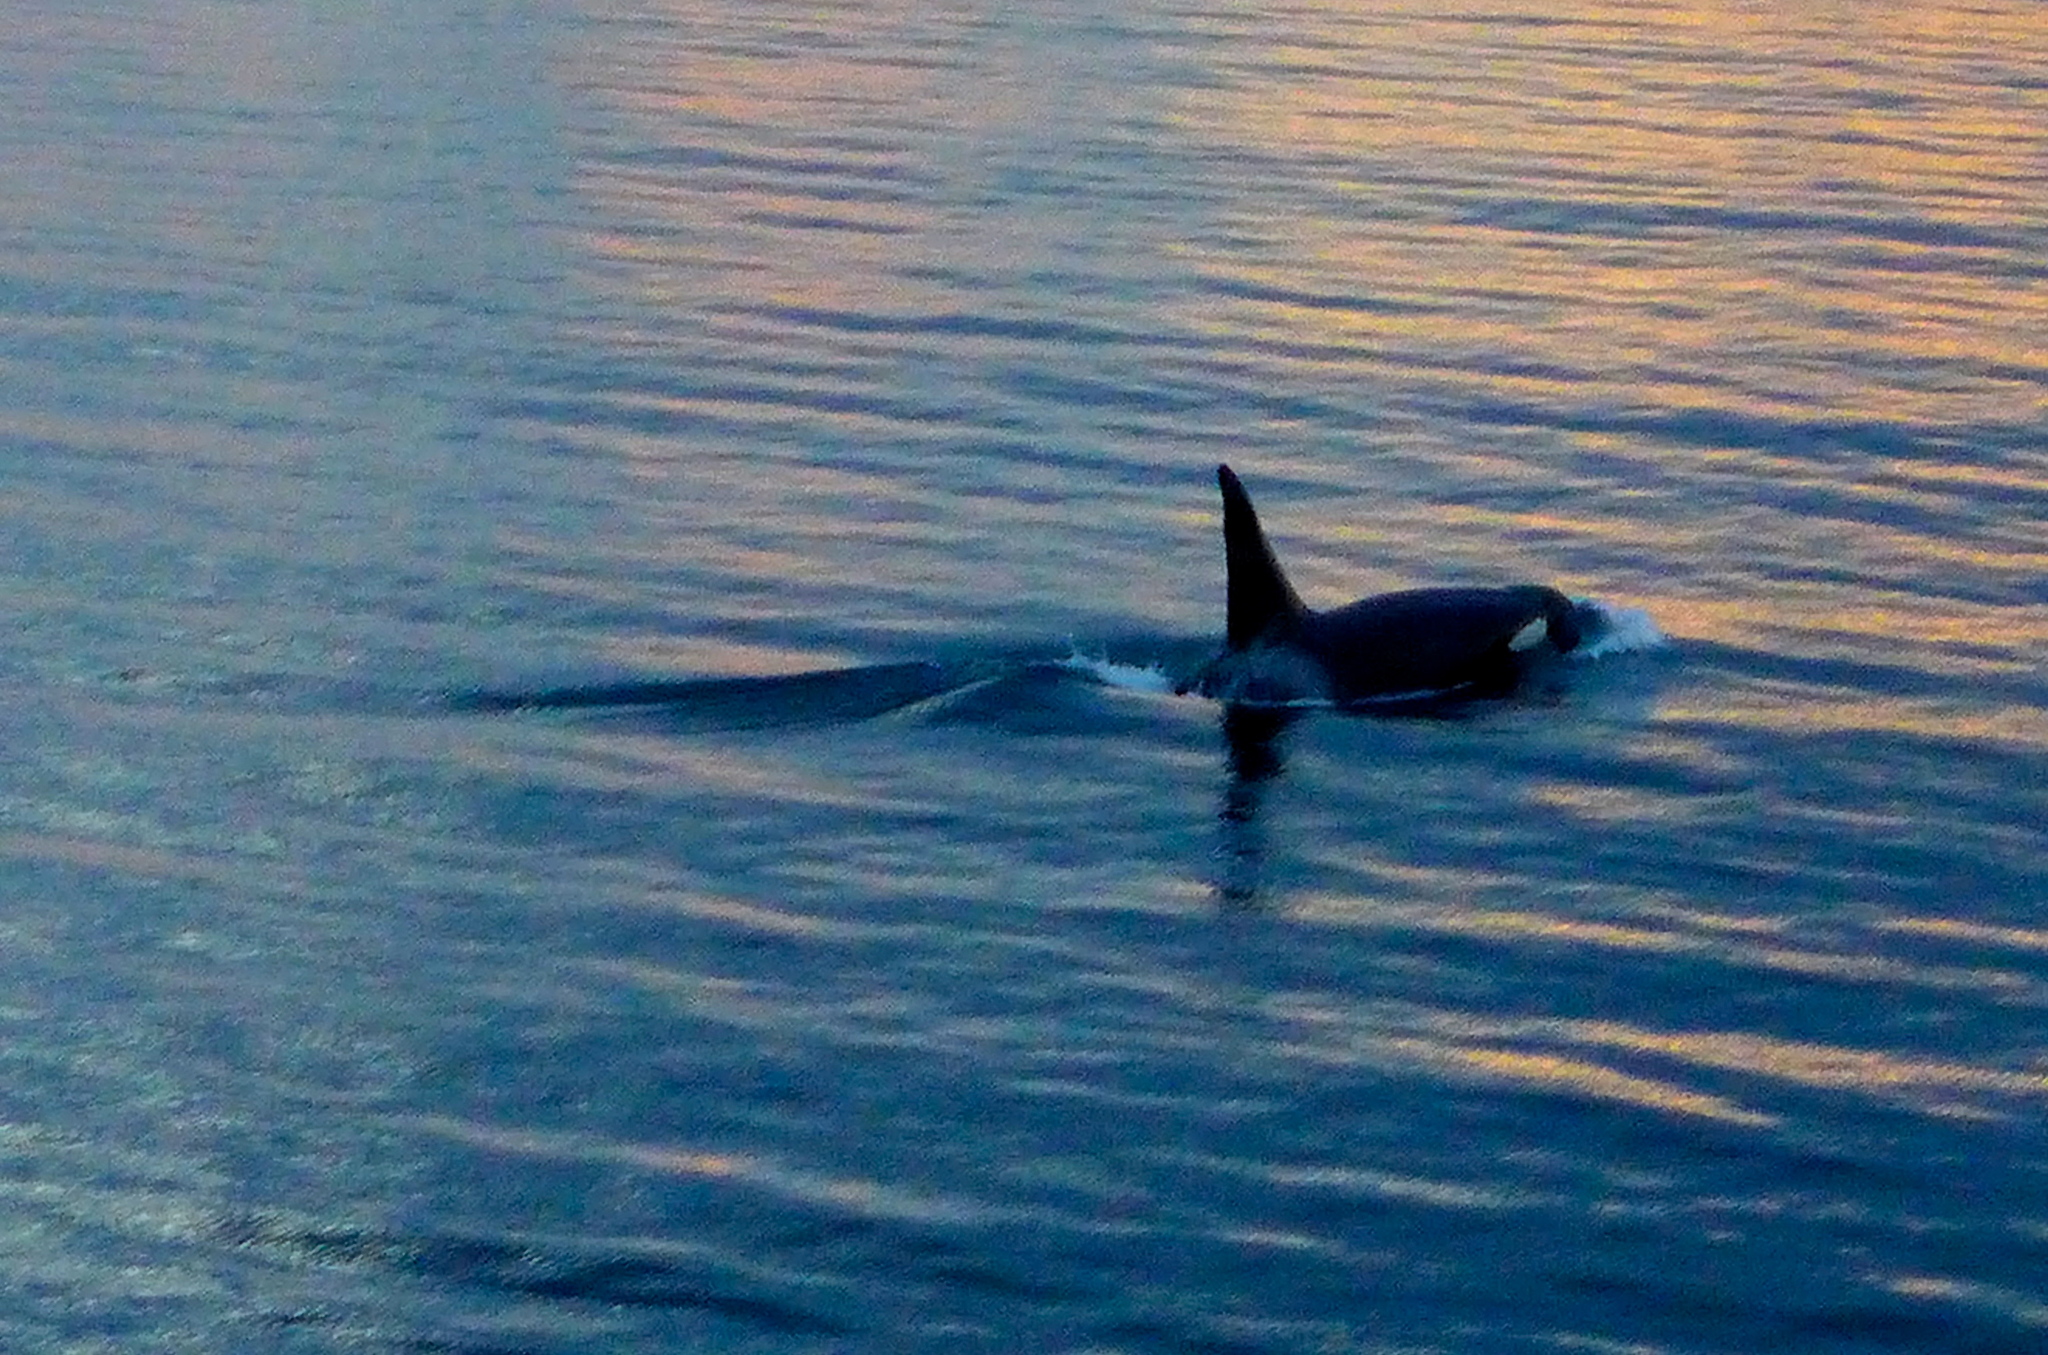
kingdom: Animalia
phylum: Chordata
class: Mammalia
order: Cetacea
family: Delphinidae
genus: Orcinus
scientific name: Orcinus orca
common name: Killer whale
